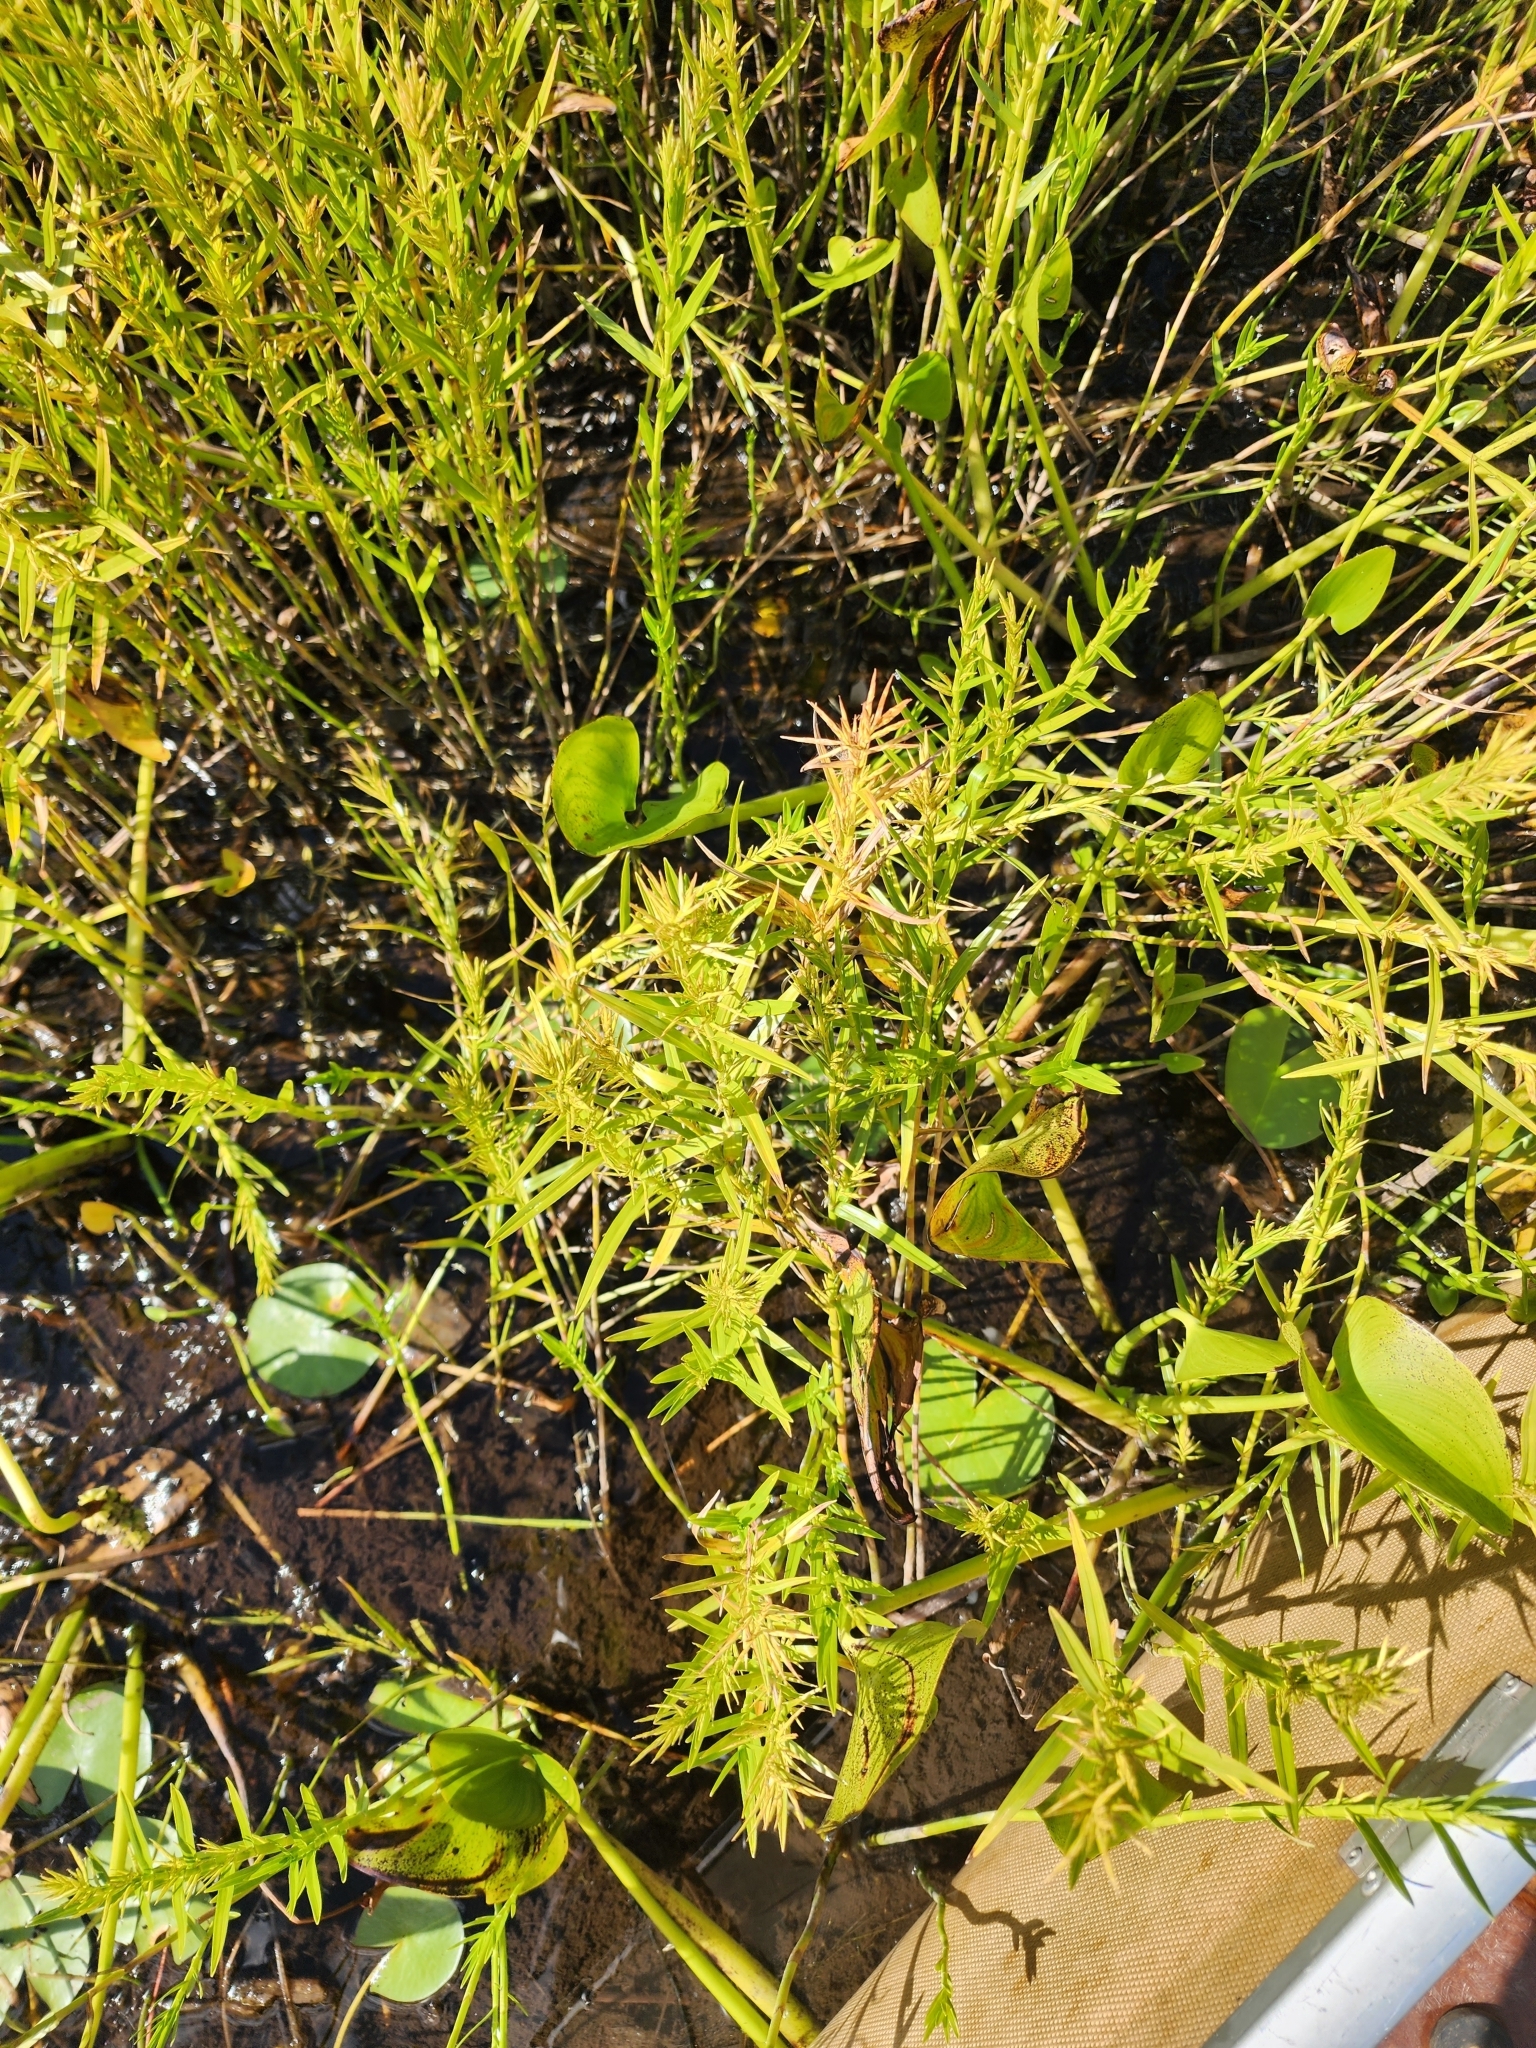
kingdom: Plantae
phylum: Tracheophyta
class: Liliopsida
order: Poales
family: Cyperaceae
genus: Dulichium
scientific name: Dulichium arundinaceum
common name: Three-way sedge
